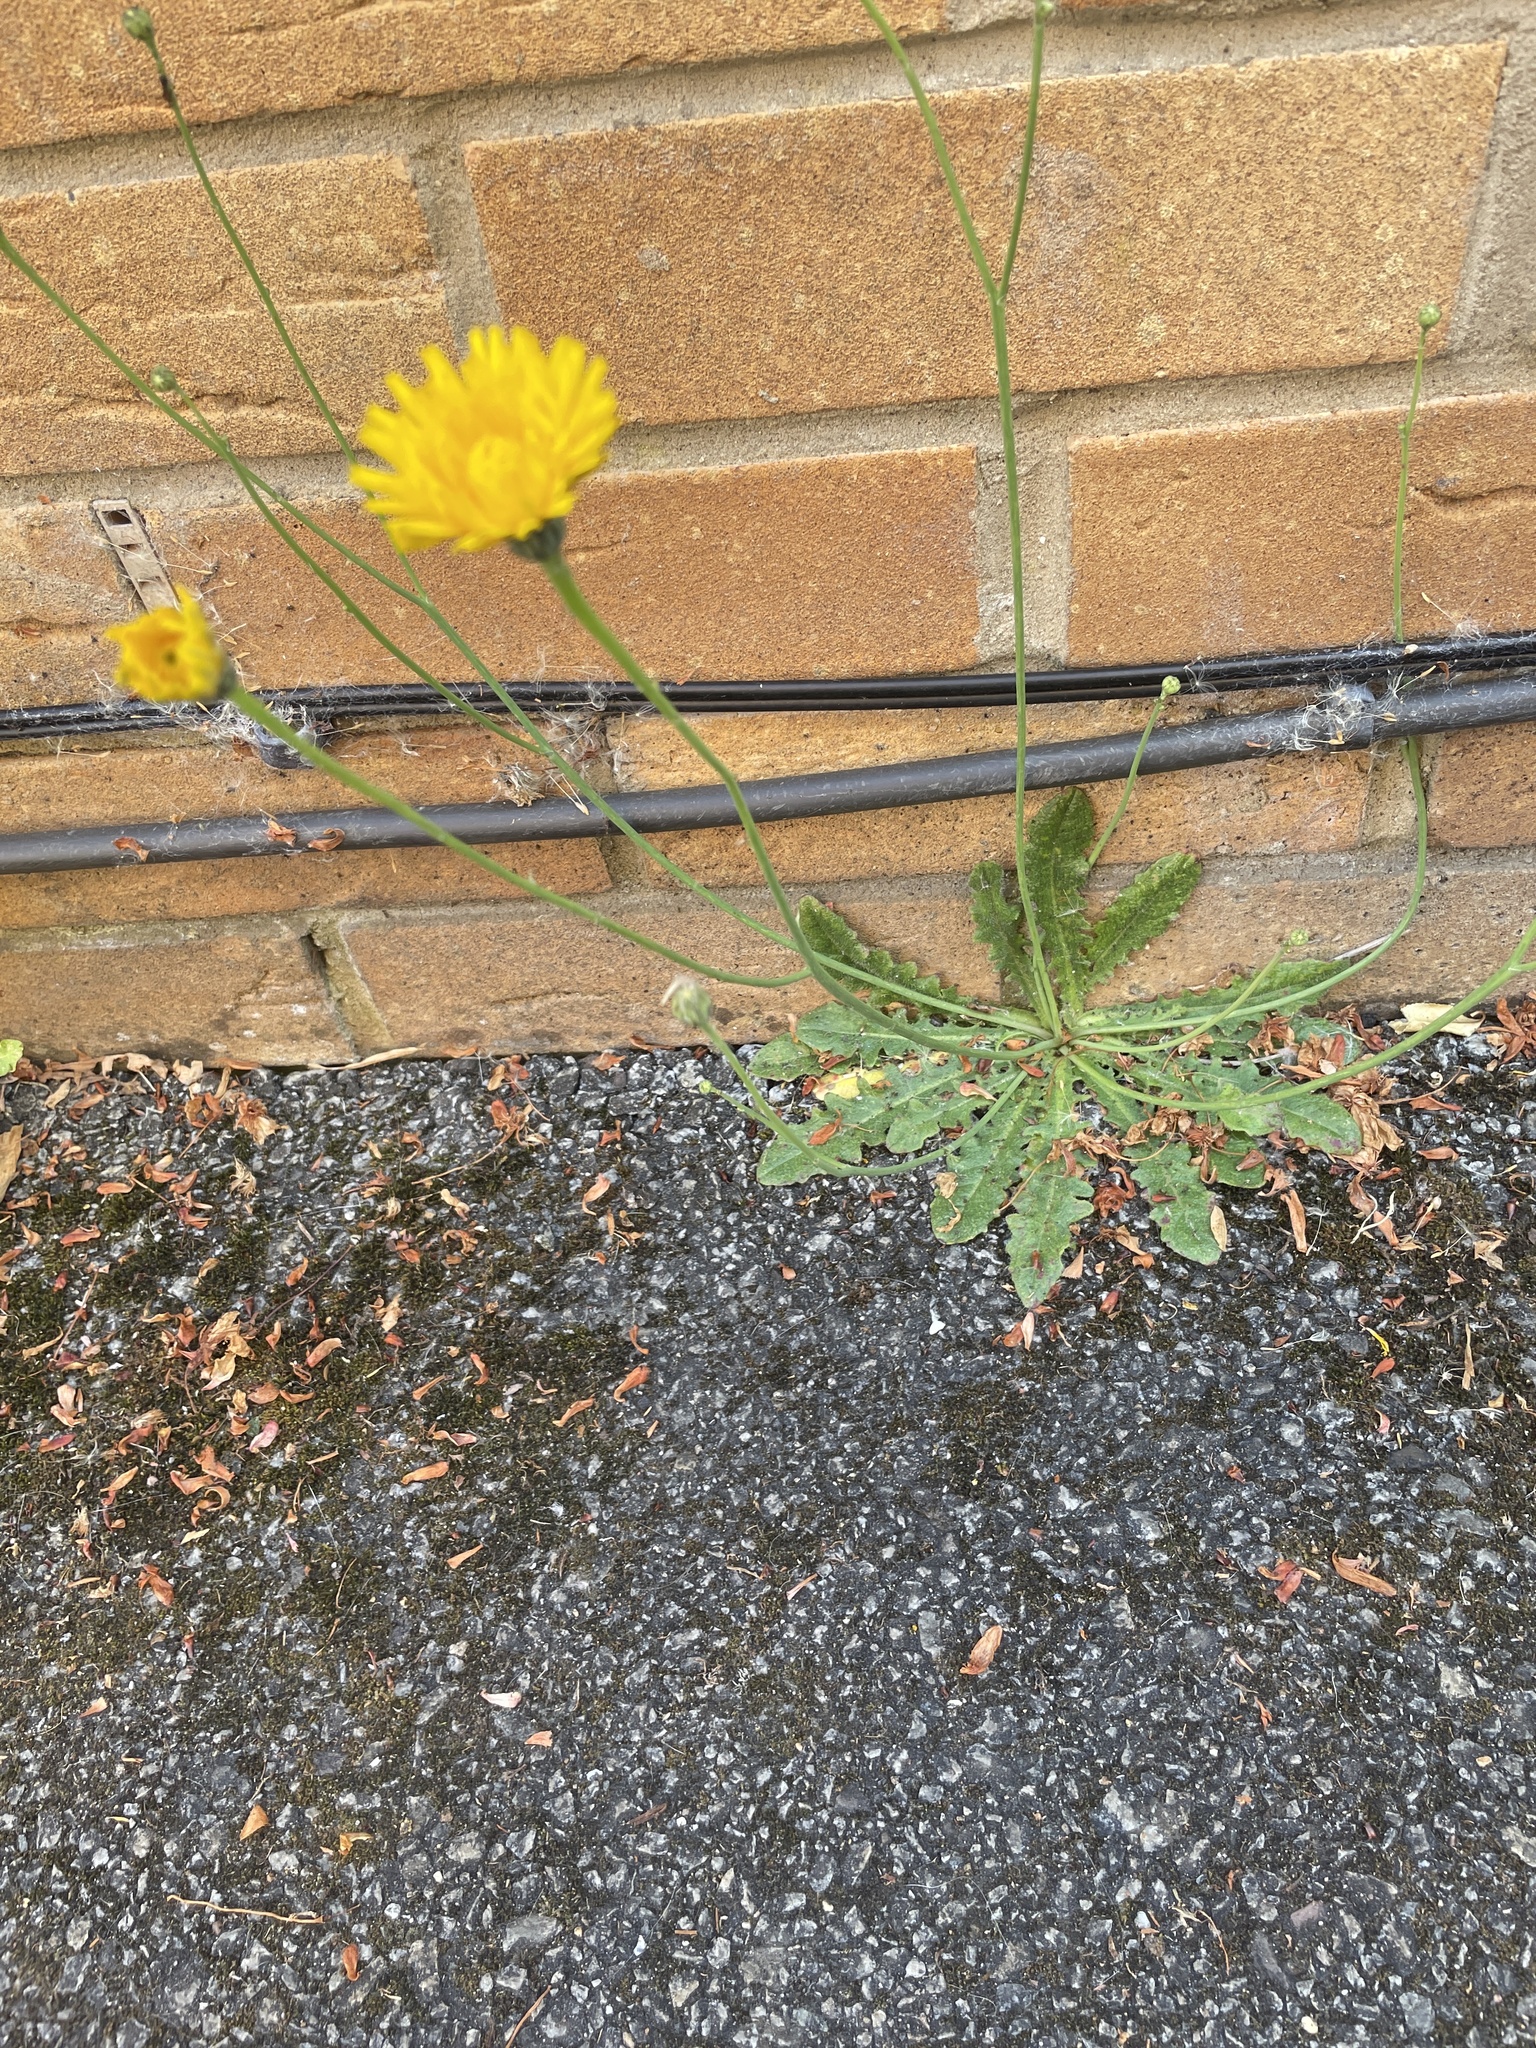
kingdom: Plantae
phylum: Tracheophyta
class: Magnoliopsida
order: Asterales
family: Asteraceae
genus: Hypochaeris
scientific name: Hypochaeris radicata
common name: Flatweed
